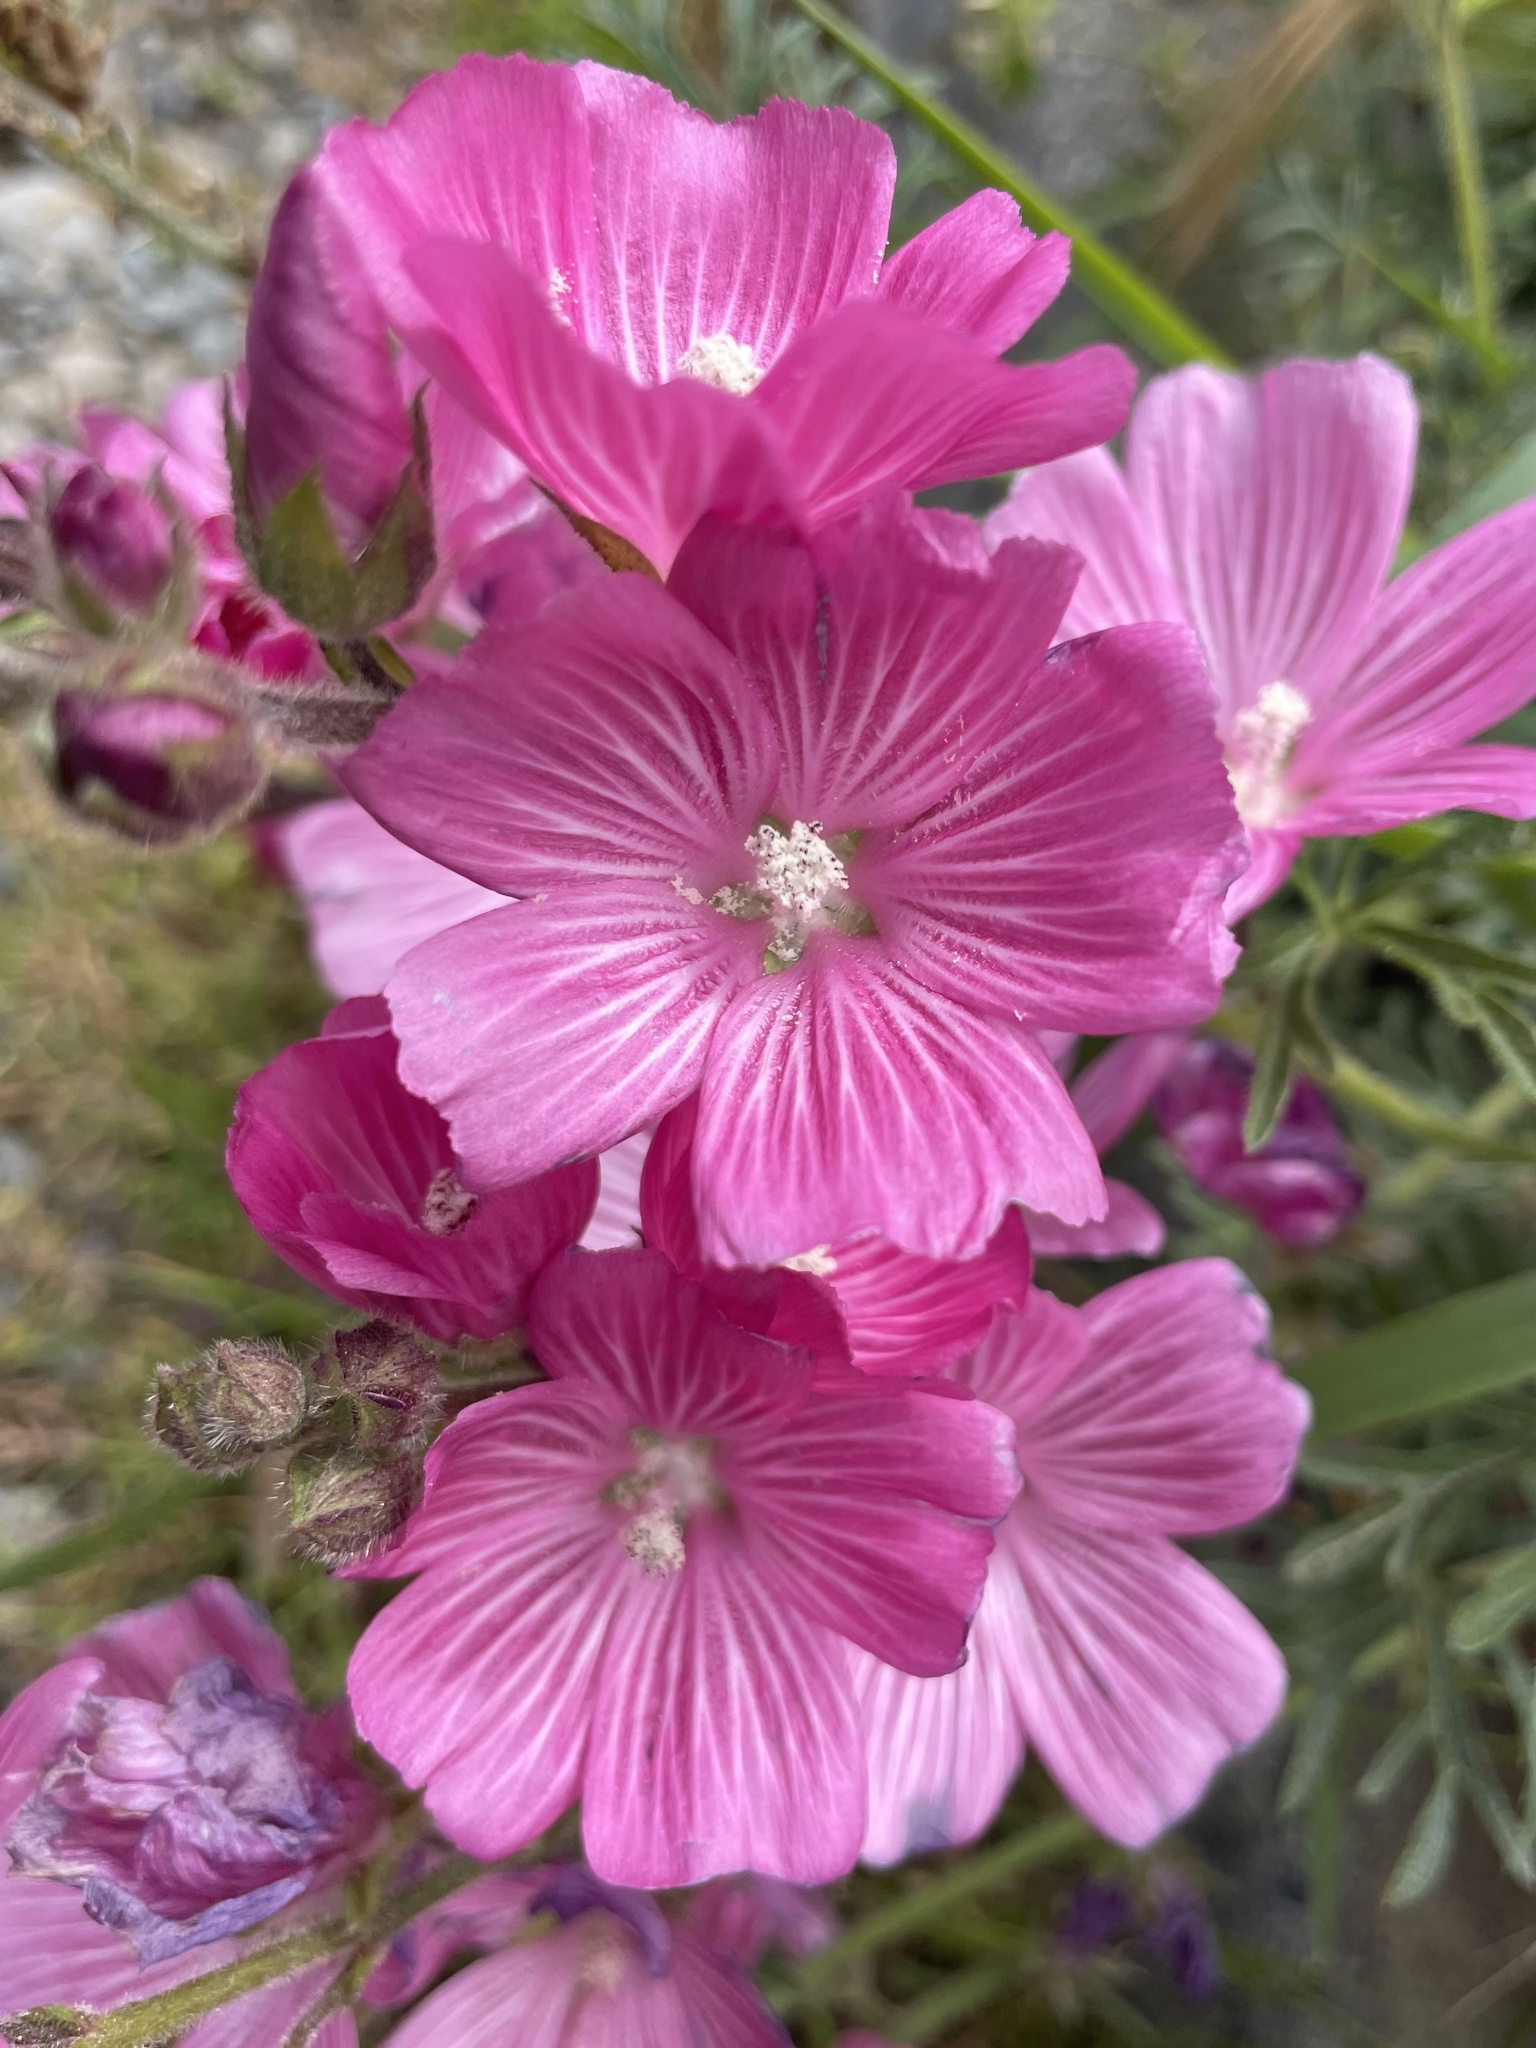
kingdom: Plantae
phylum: Tracheophyta
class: Magnoliopsida
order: Malvales
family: Malvaceae
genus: Sidalcea
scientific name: Sidalcea malviflora
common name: Greek mallow
